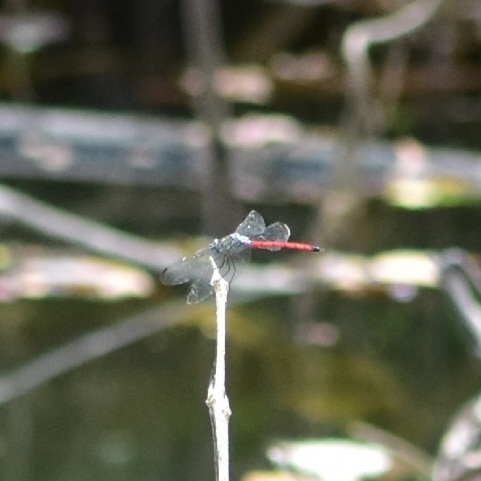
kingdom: Animalia
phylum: Arthropoda
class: Insecta
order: Odonata
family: Libellulidae
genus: Lathrecista
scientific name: Lathrecista asiatica
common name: Scarlet grenadier
